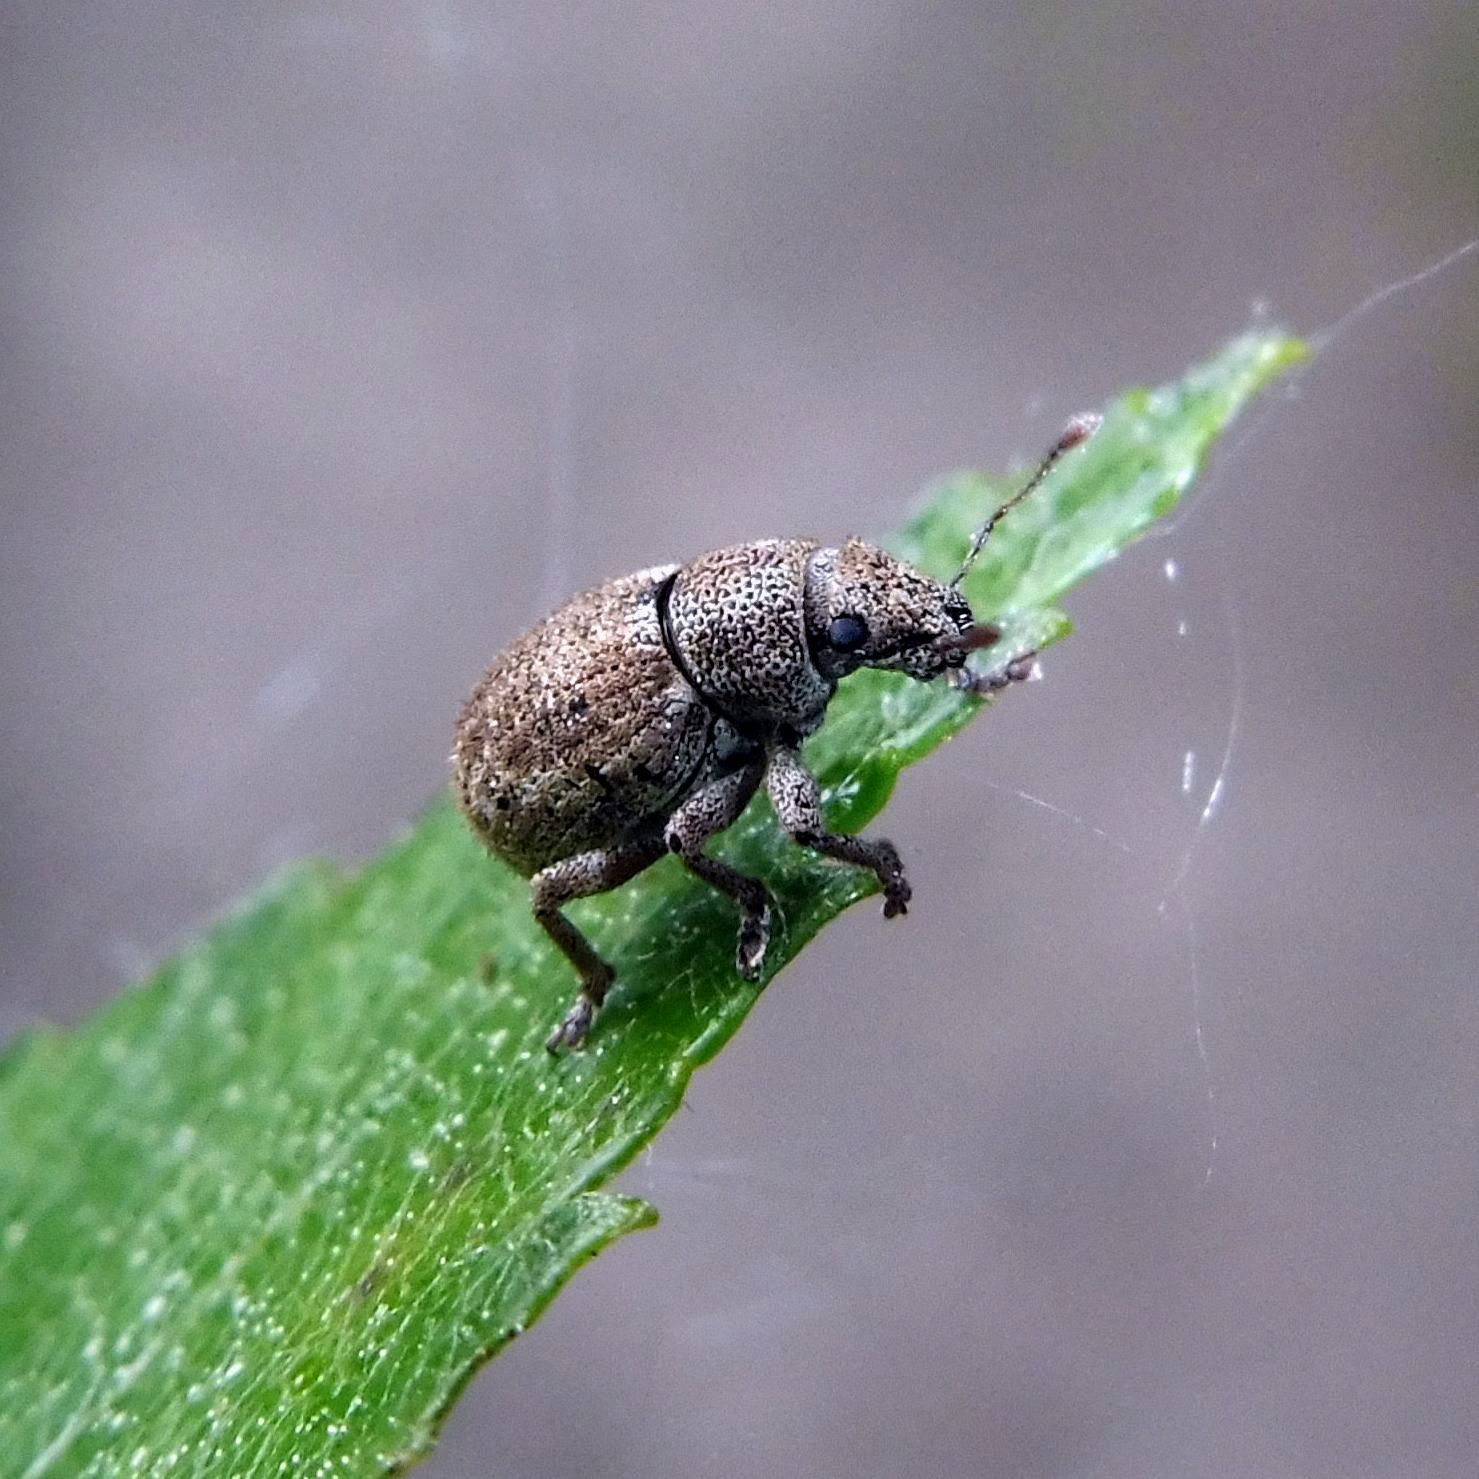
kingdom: Animalia
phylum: Arthropoda
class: Insecta
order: Coleoptera
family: Curculionidae
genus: Strophosoma
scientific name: Strophosoma capitatum
